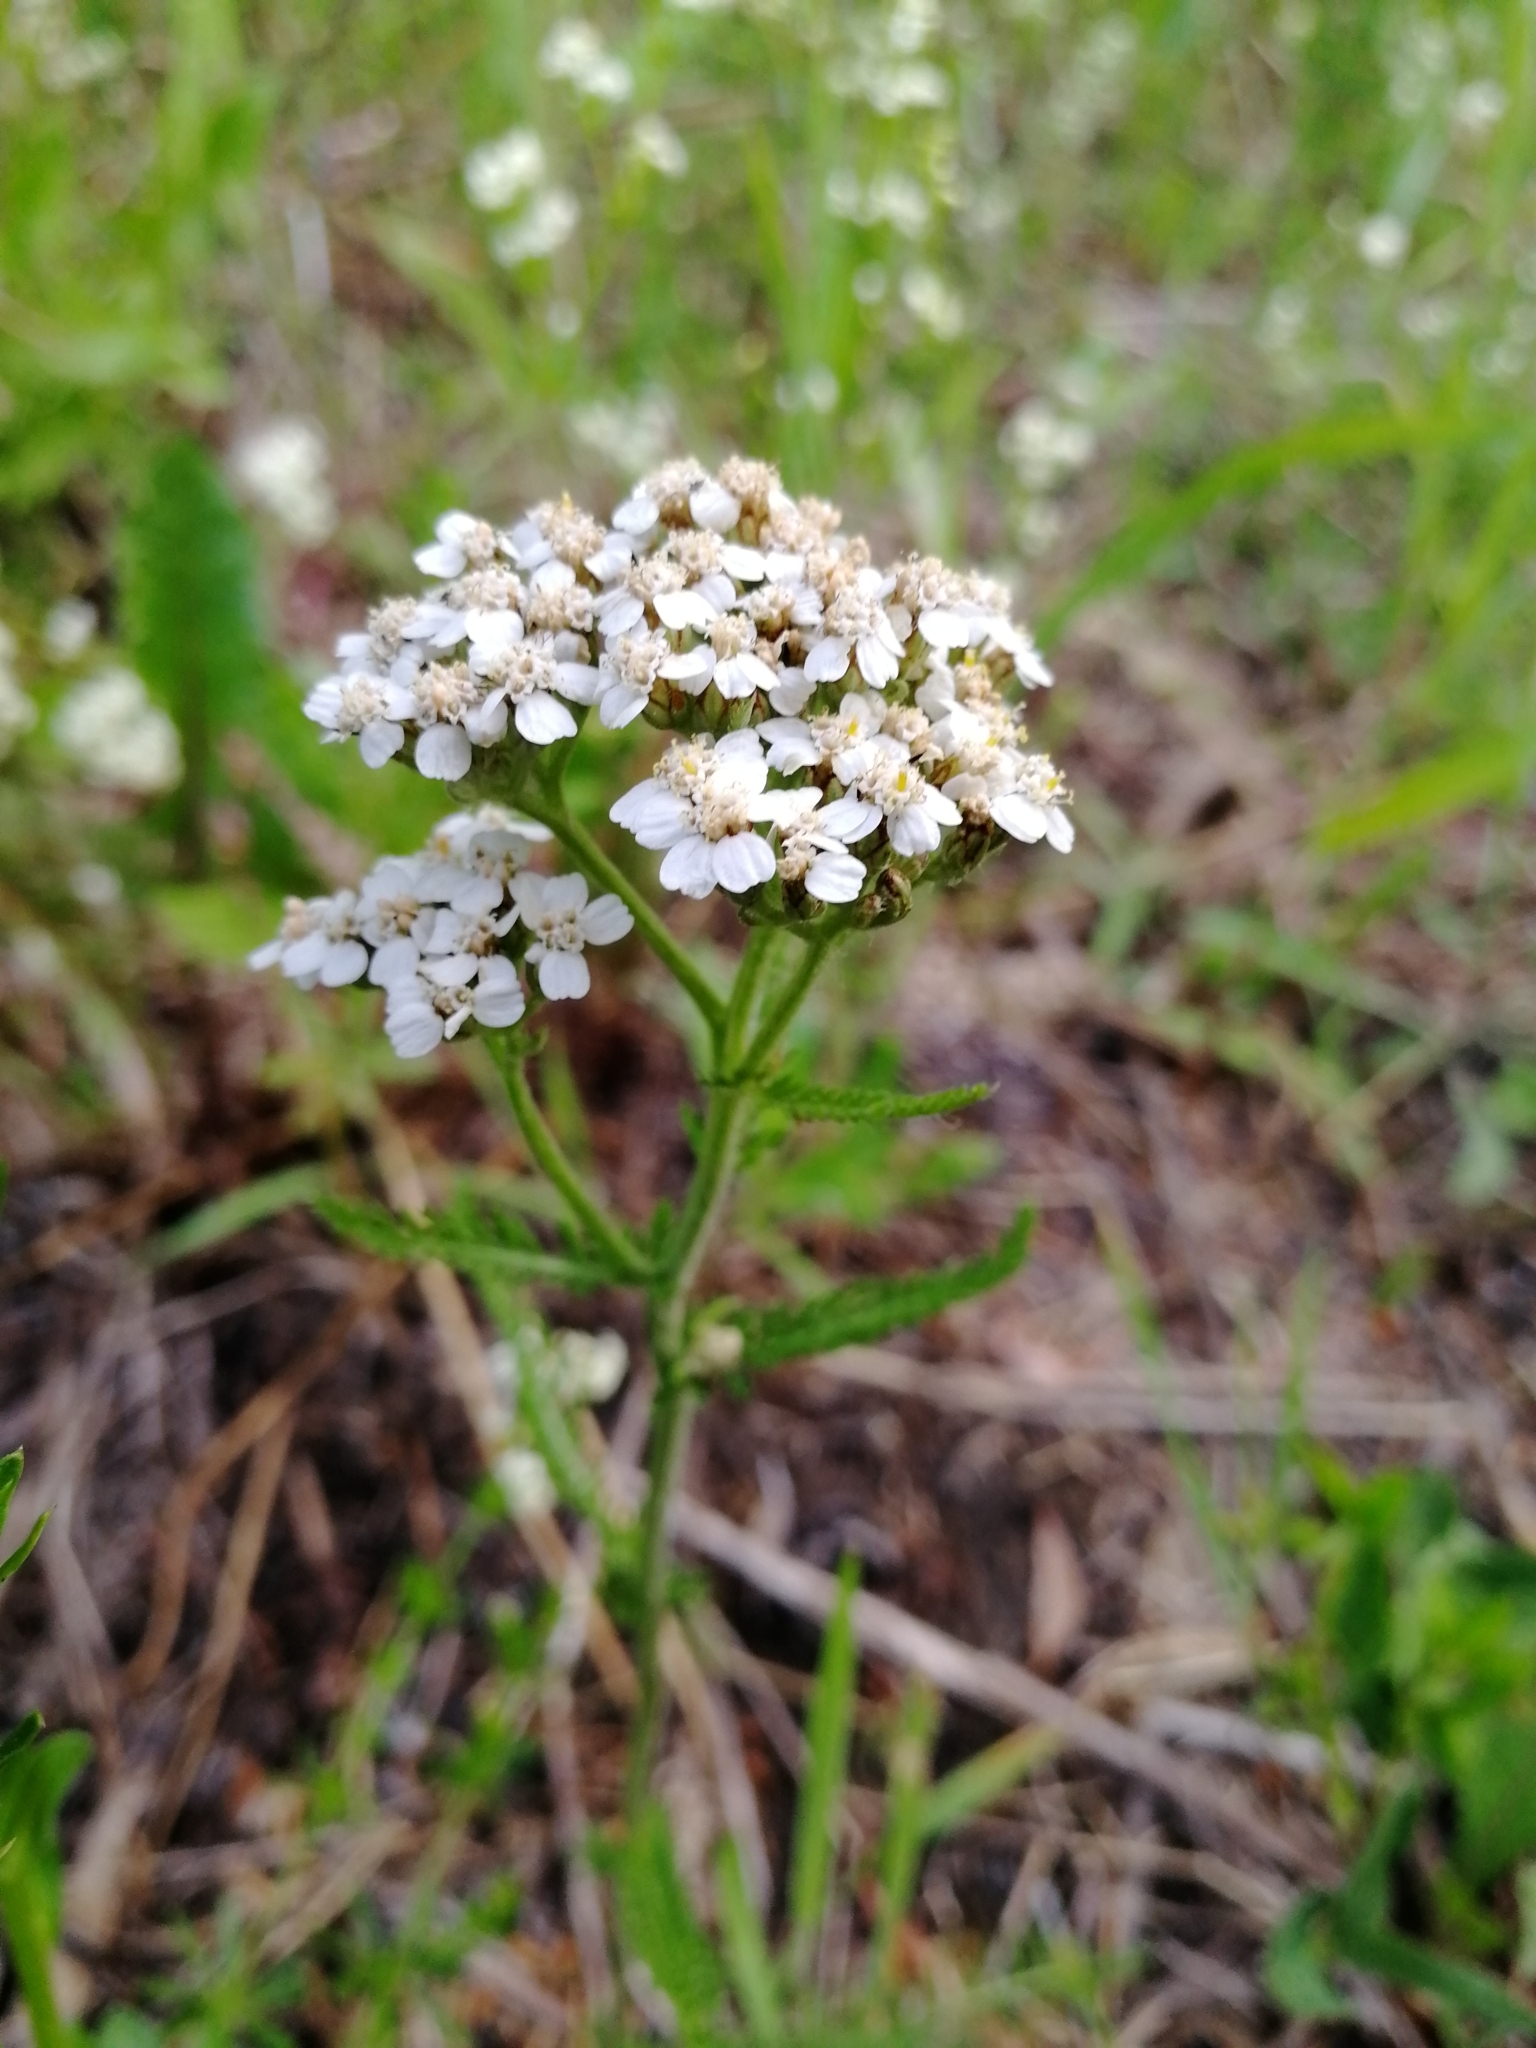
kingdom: Plantae
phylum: Tracheophyta
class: Magnoliopsida
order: Asterales
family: Asteraceae
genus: Achillea
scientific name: Achillea millefolium
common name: Yarrow
